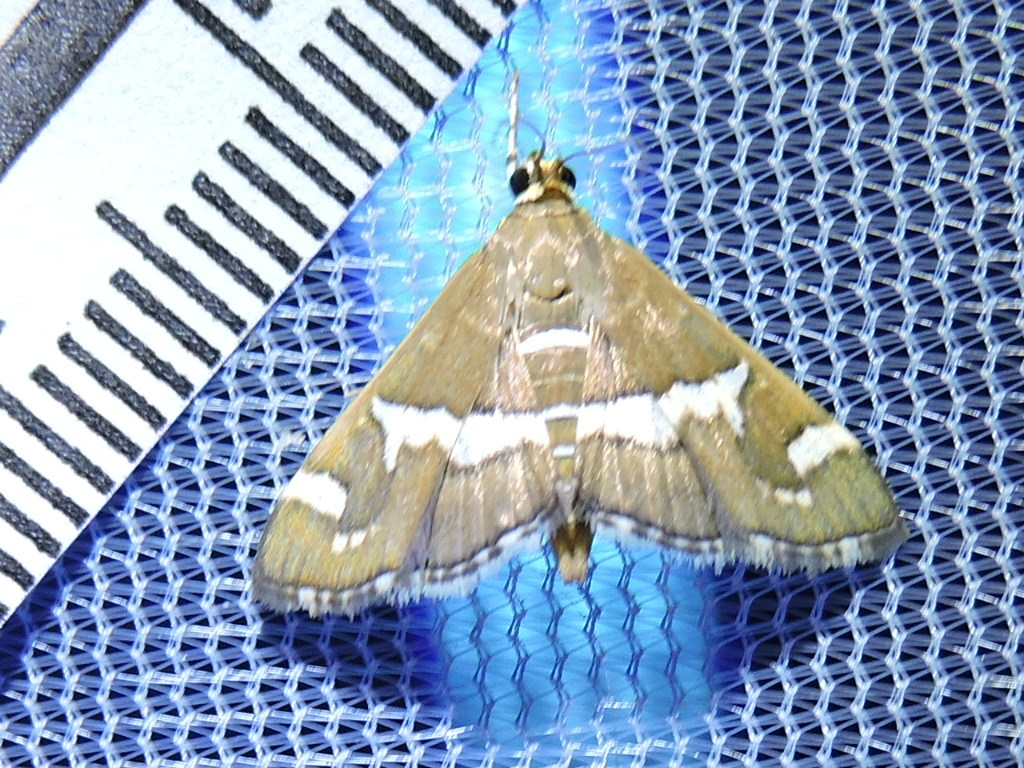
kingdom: Animalia
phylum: Arthropoda
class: Insecta
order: Lepidoptera
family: Crambidae
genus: Spoladea
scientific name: Spoladea recurvalis
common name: Beet webworm moth
